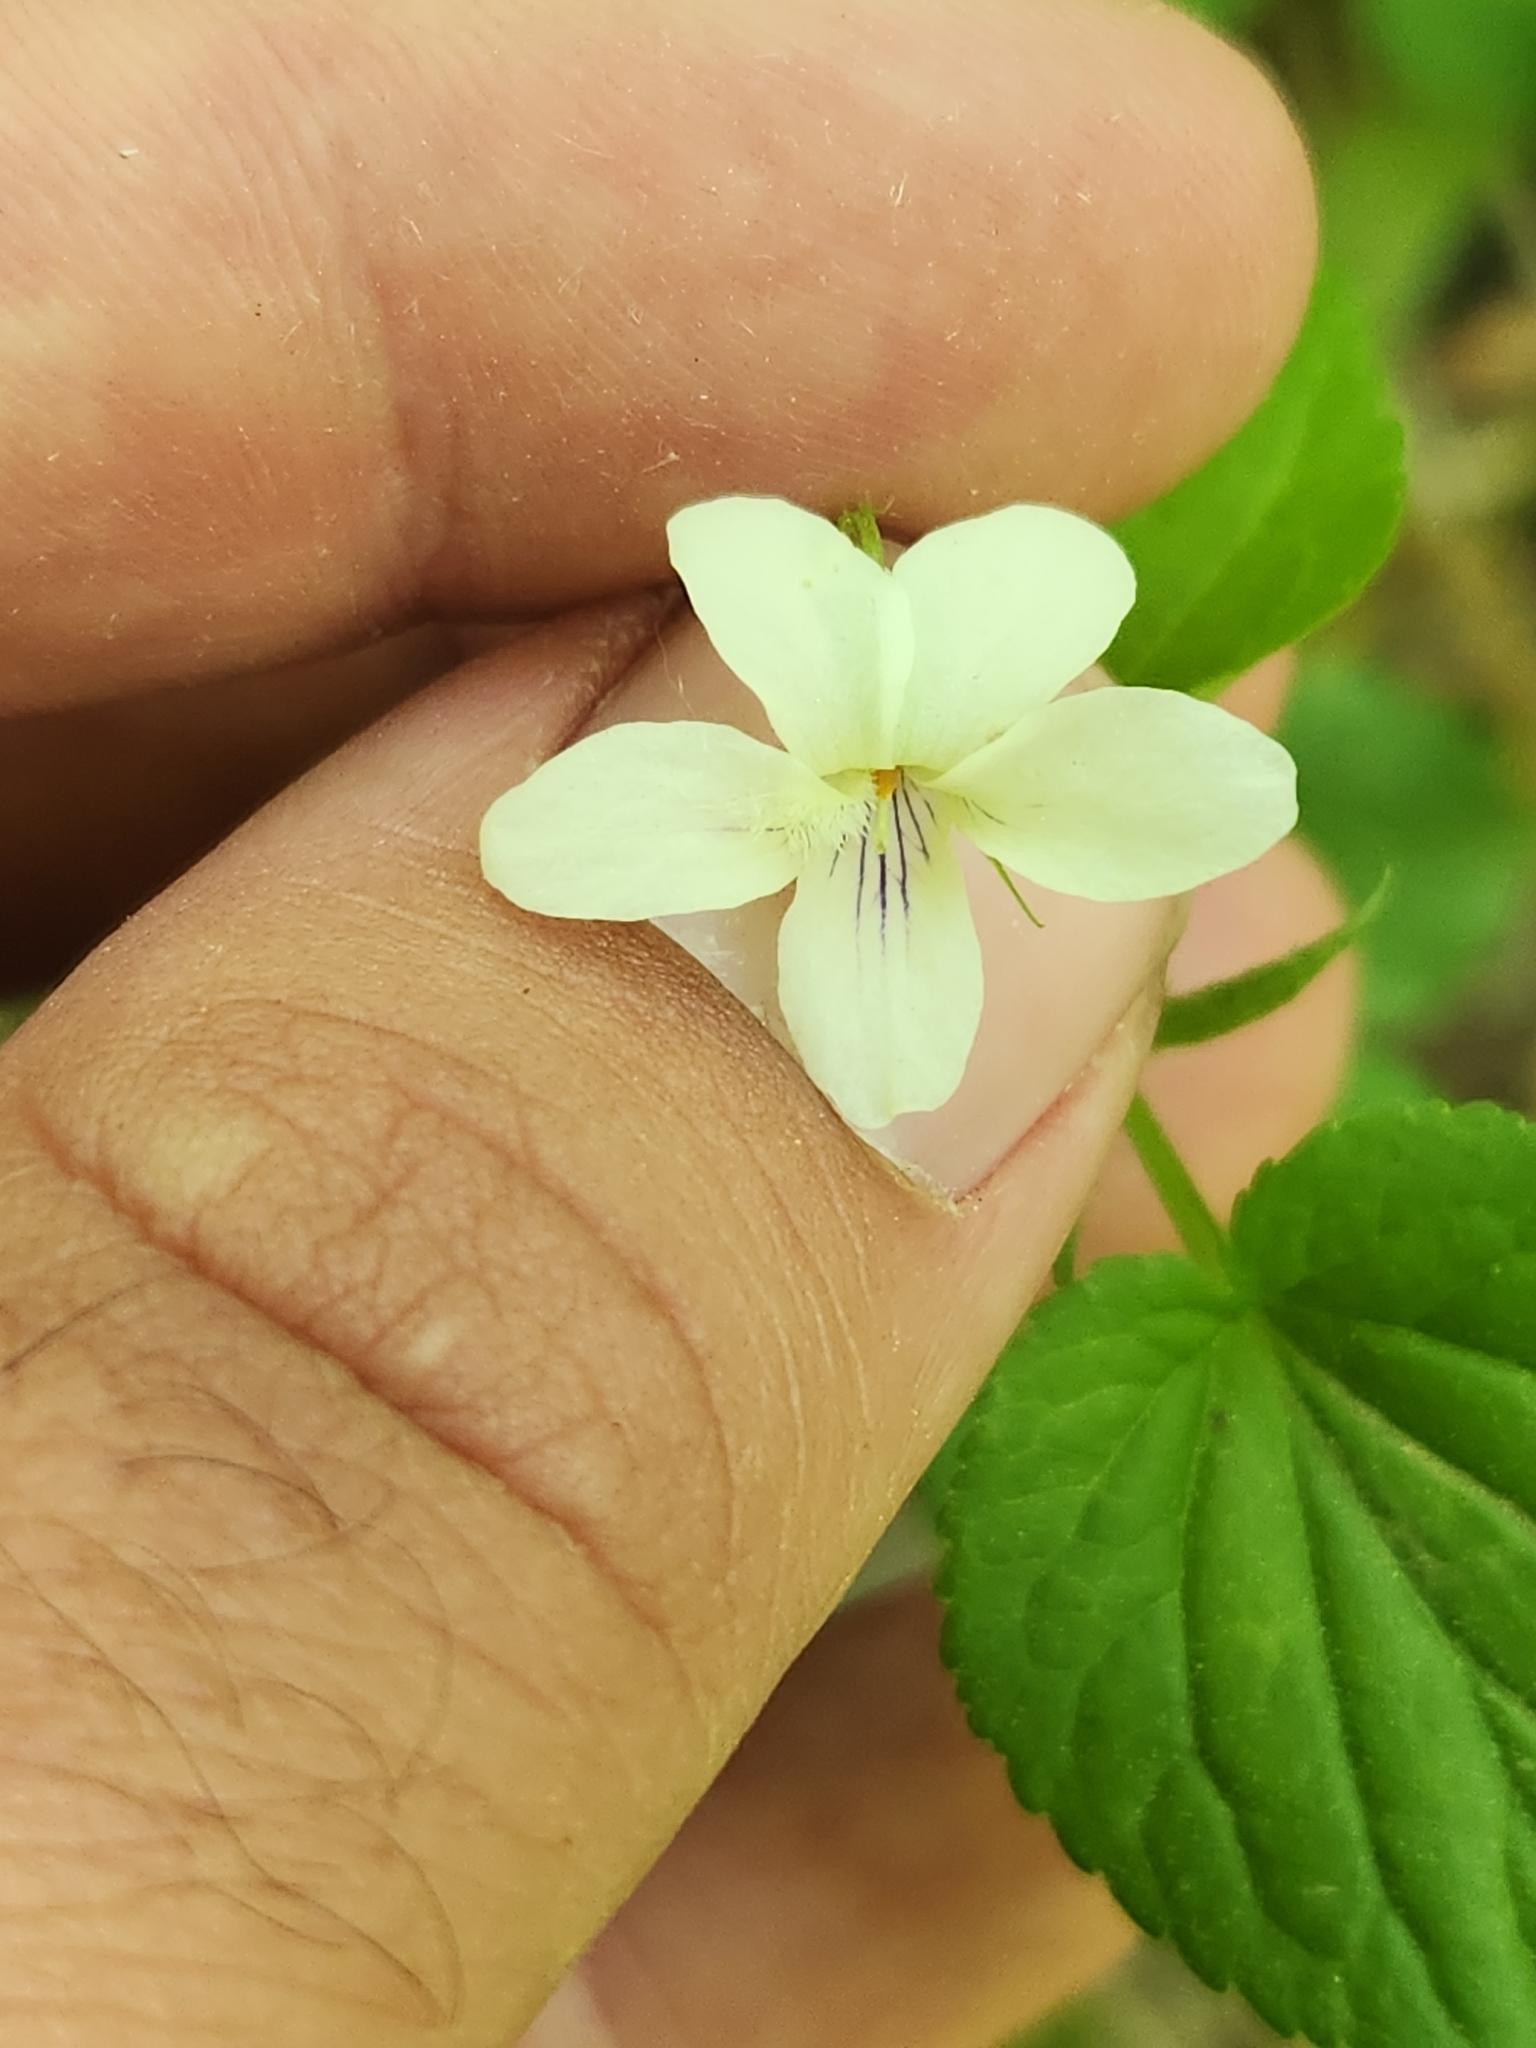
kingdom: Plantae
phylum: Tracheophyta
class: Magnoliopsida
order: Malpighiales
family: Violaceae
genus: Viola
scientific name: Viola striata
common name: Cream violet
